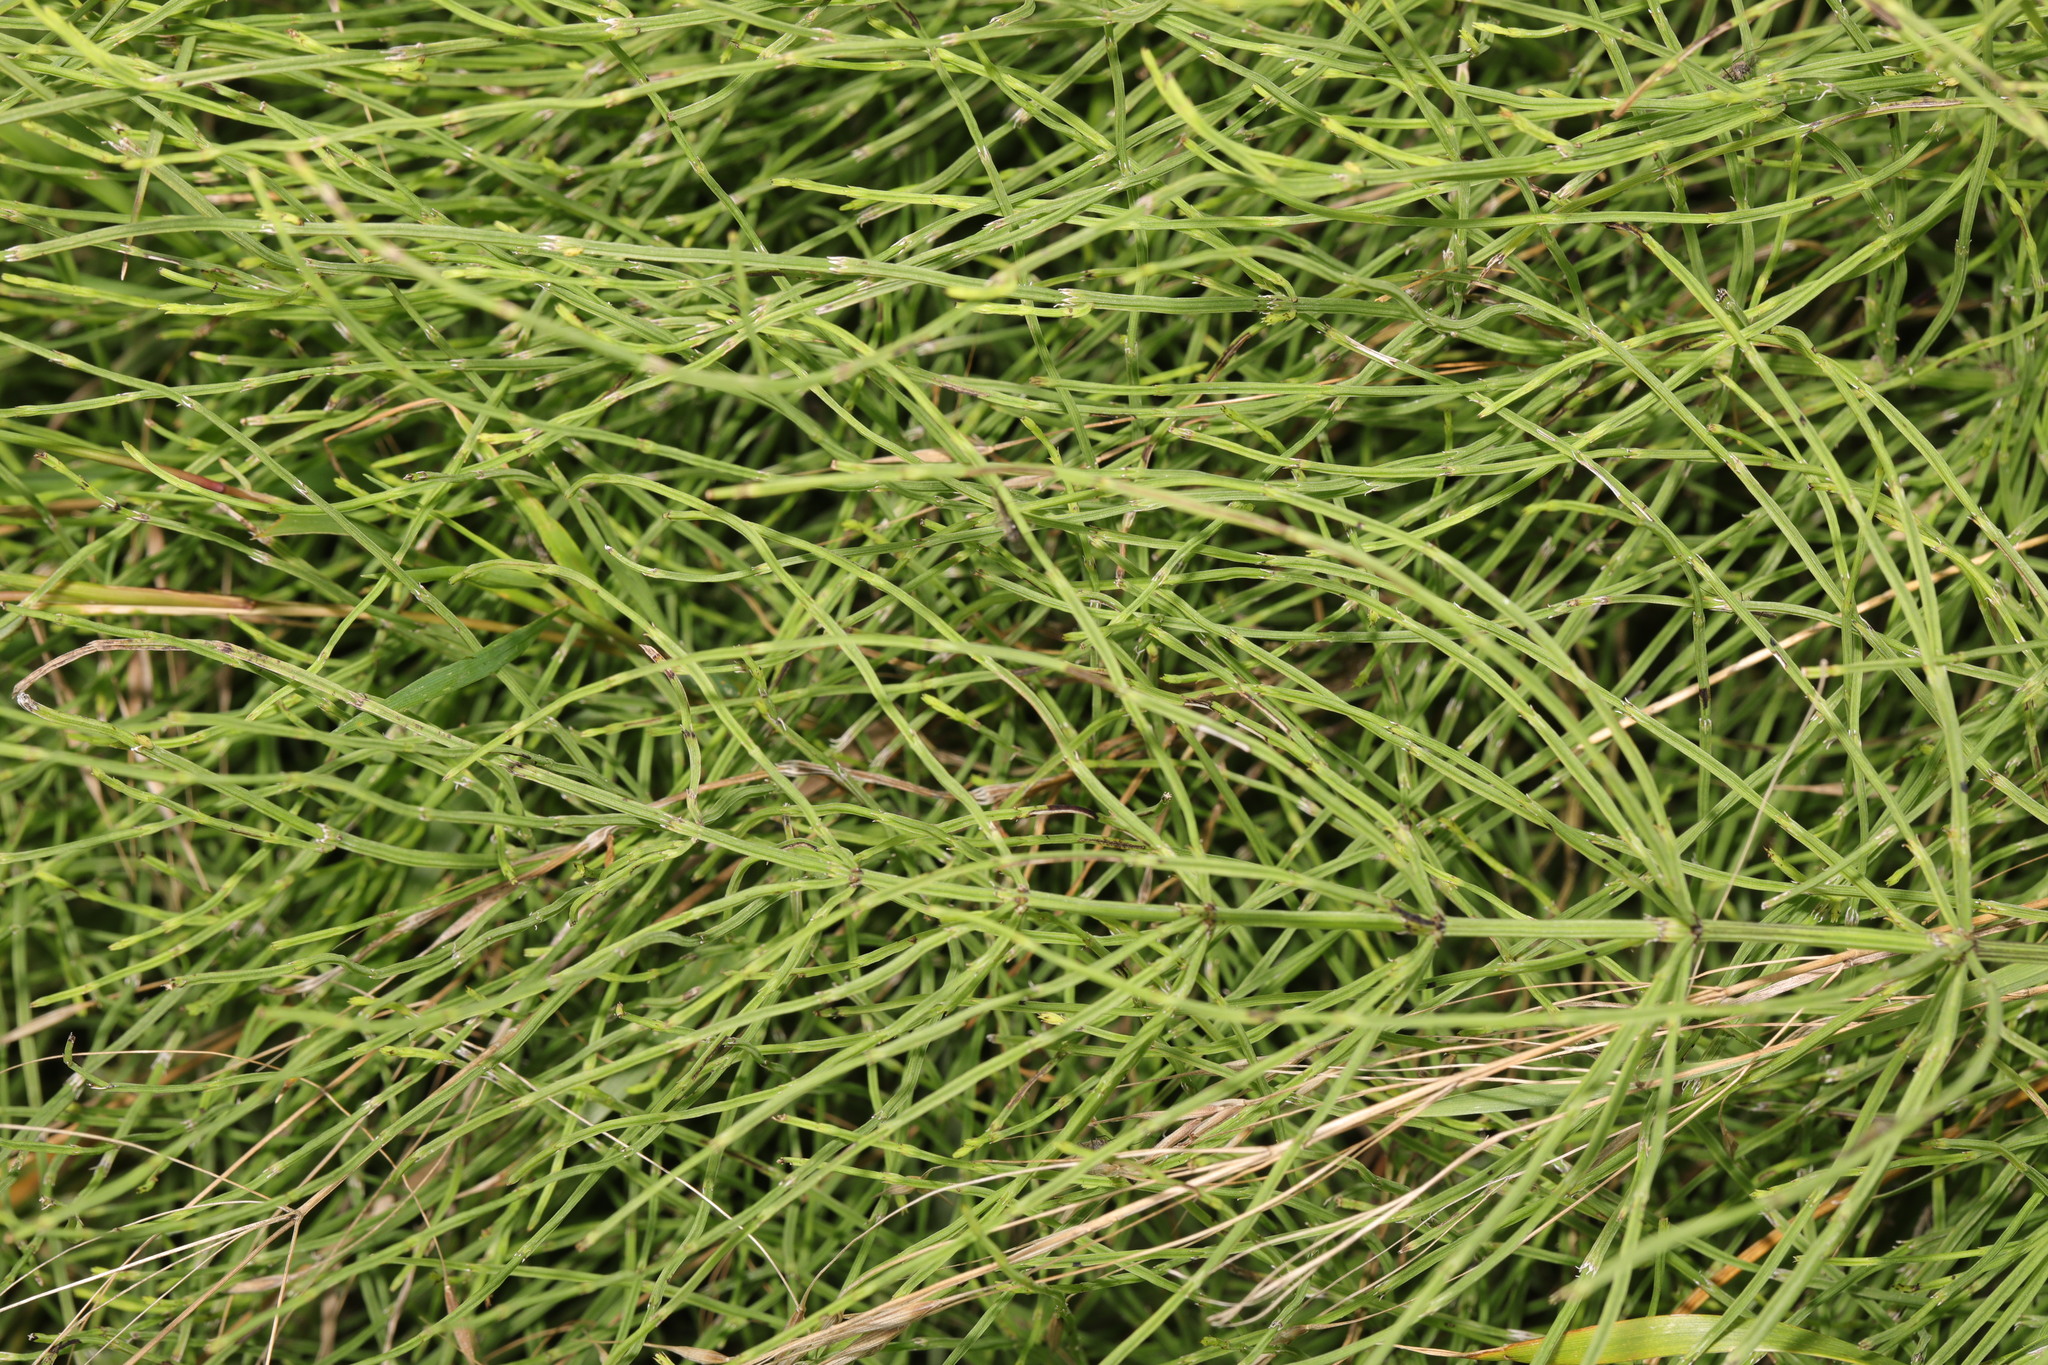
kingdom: Plantae
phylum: Tracheophyta
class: Polypodiopsida
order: Equisetales
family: Equisetaceae
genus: Equisetum
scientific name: Equisetum arvense
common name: Field horsetail
